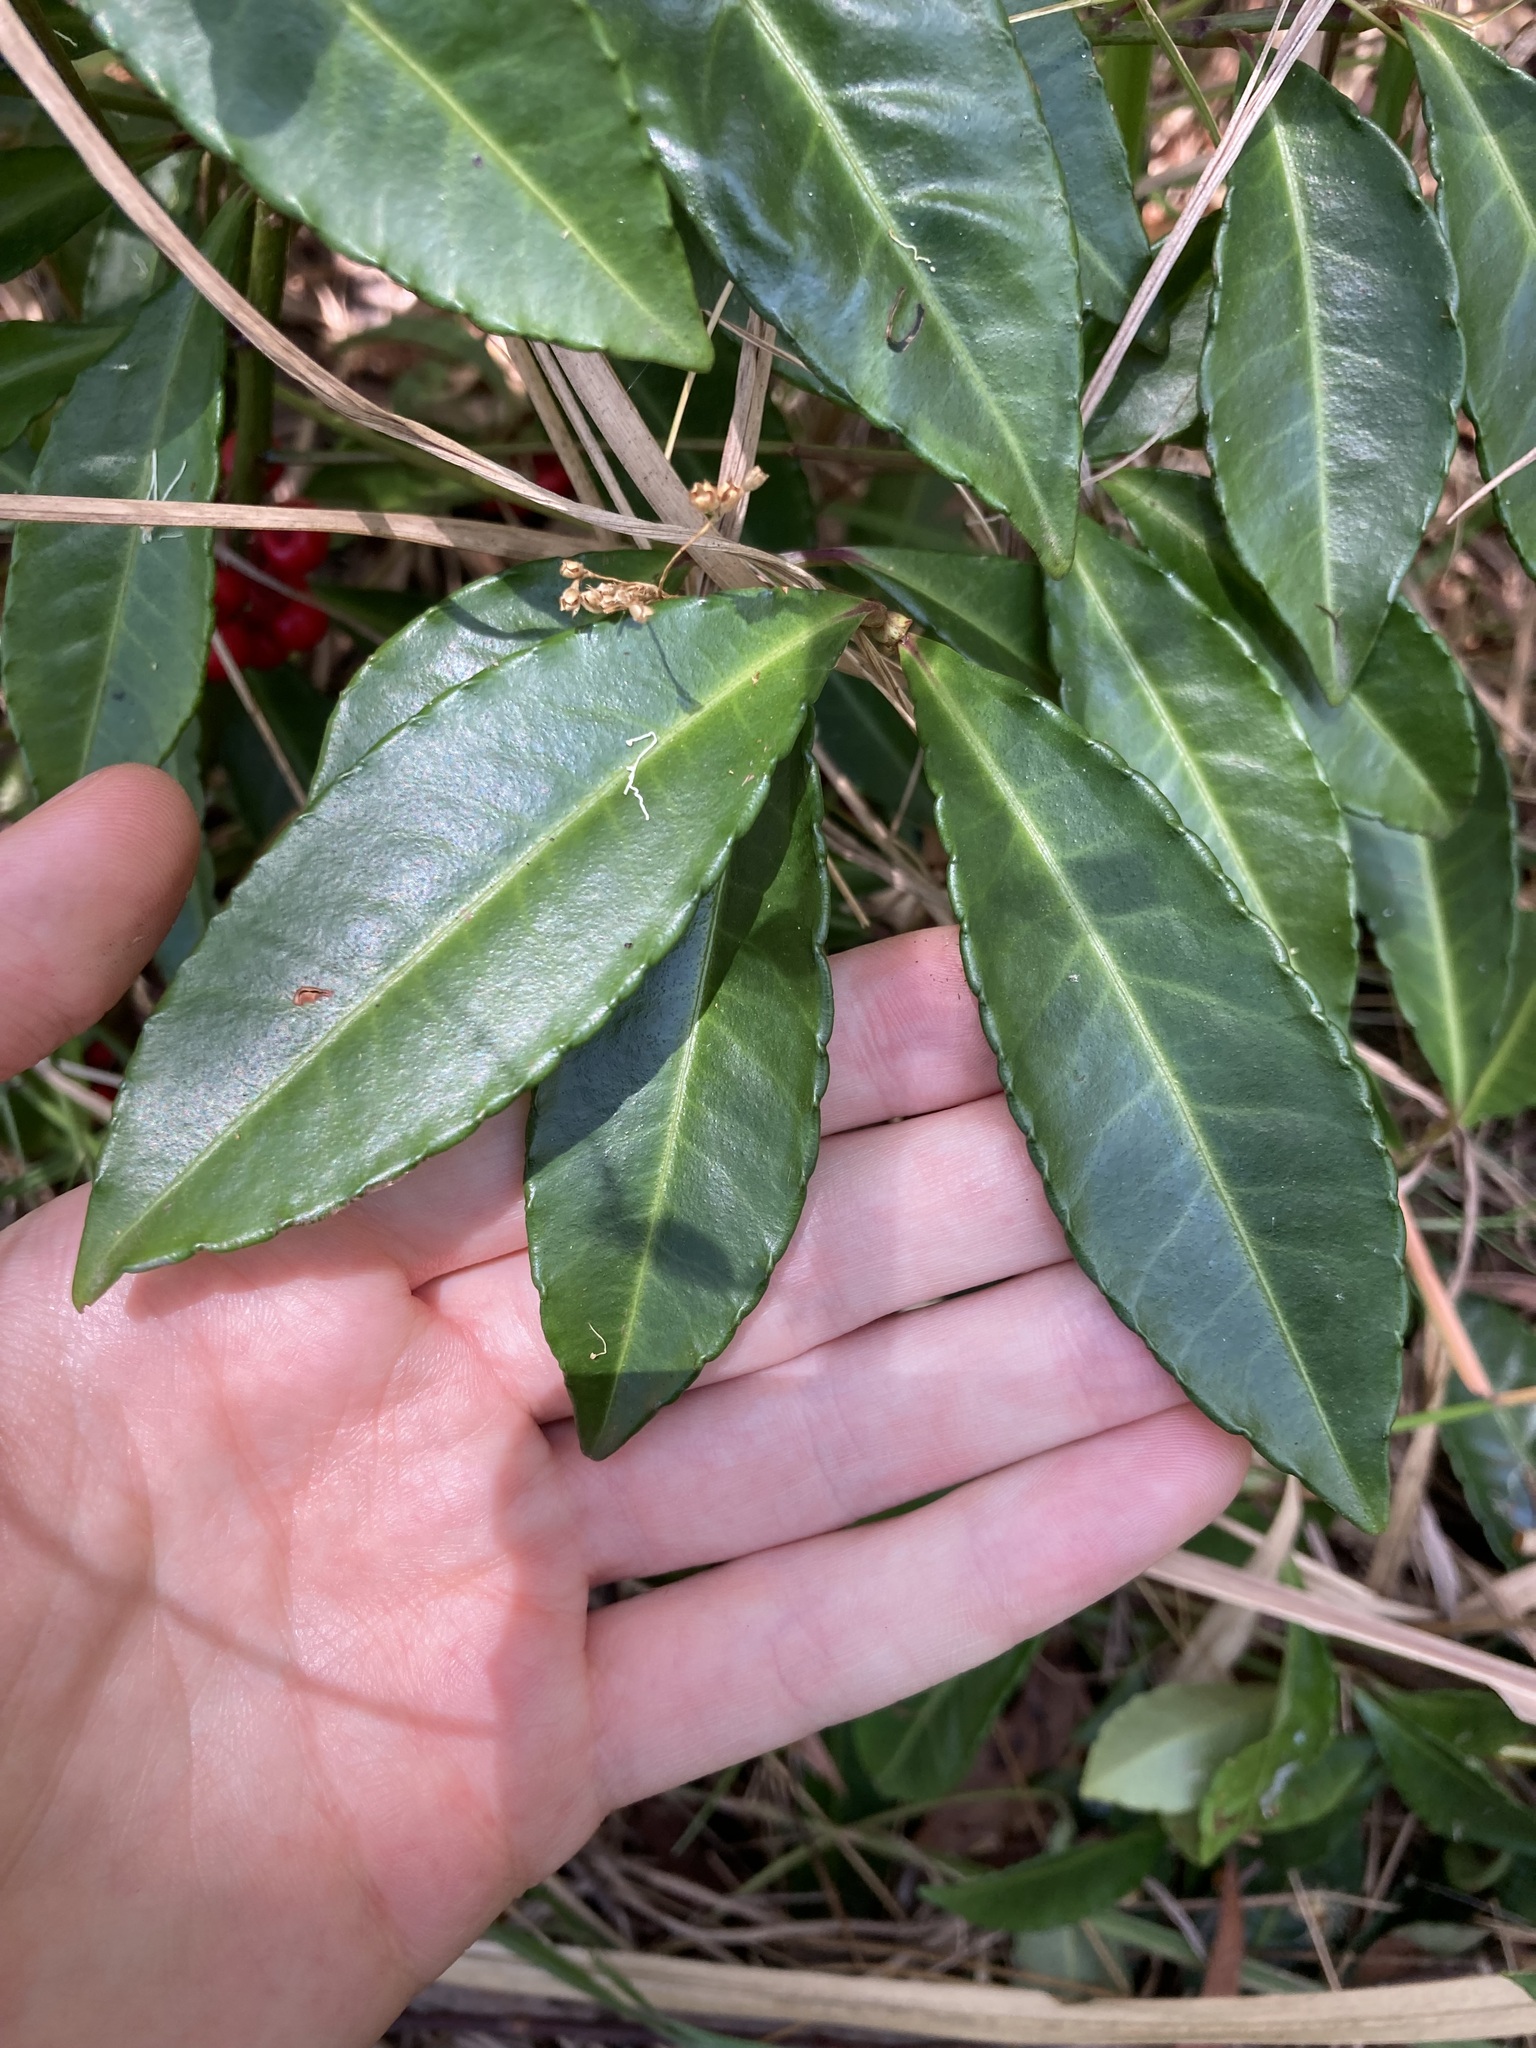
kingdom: Plantae
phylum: Tracheophyta
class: Magnoliopsida
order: Ericales
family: Primulaceae
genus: Ardisia
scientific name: Ardisia crenata
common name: Hen's eyes
